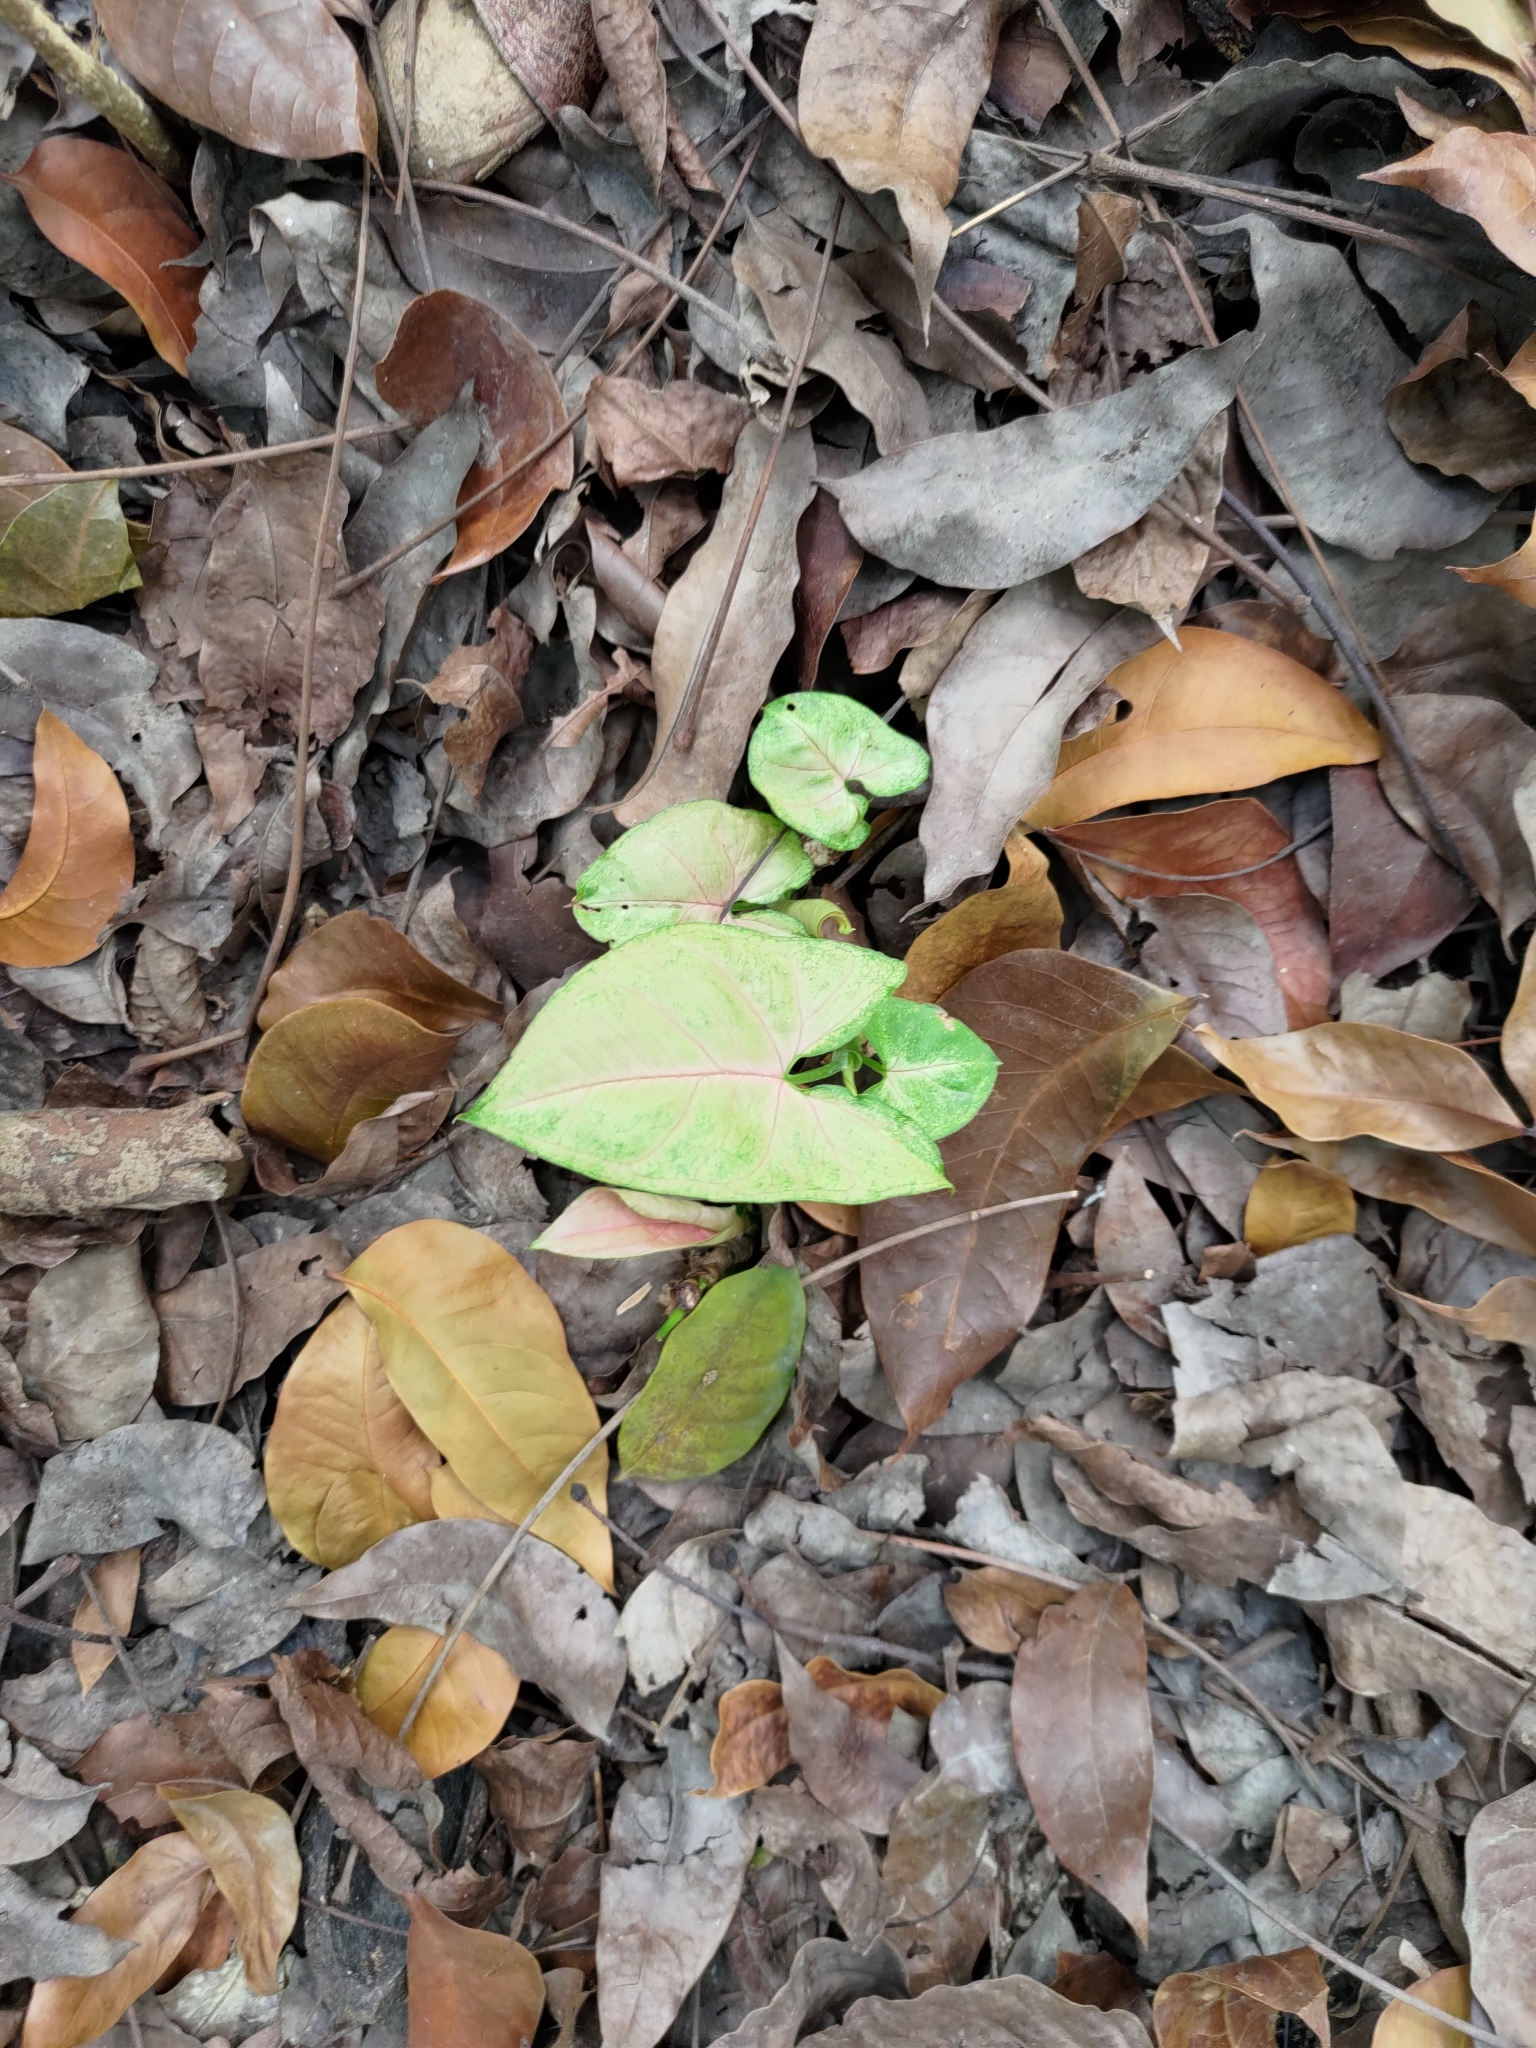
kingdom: Plantae
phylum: Tracheophyta
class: Liliopsida
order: Alismatales
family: Araceae
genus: Syngonium
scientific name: Syngonium podophyllum
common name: American evergreen
